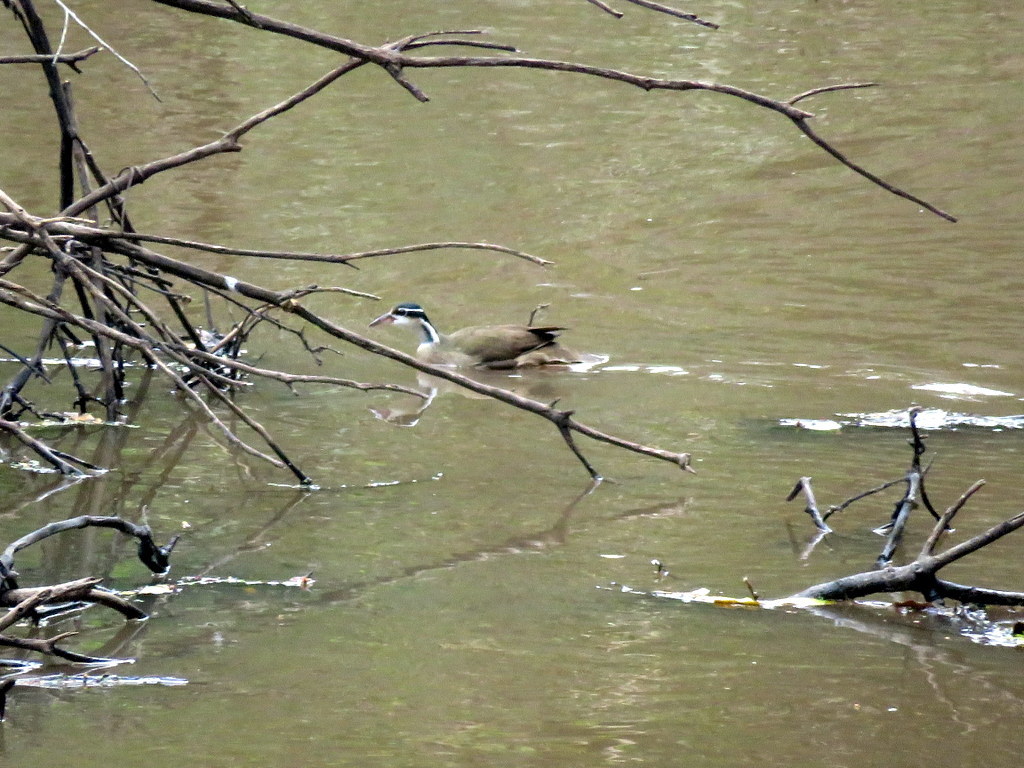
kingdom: Animalia
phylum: Chordata
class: Aves
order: Gruiformes
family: Heliornithidae
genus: Heliornis
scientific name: Heliornis fulica
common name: Sungrebe
